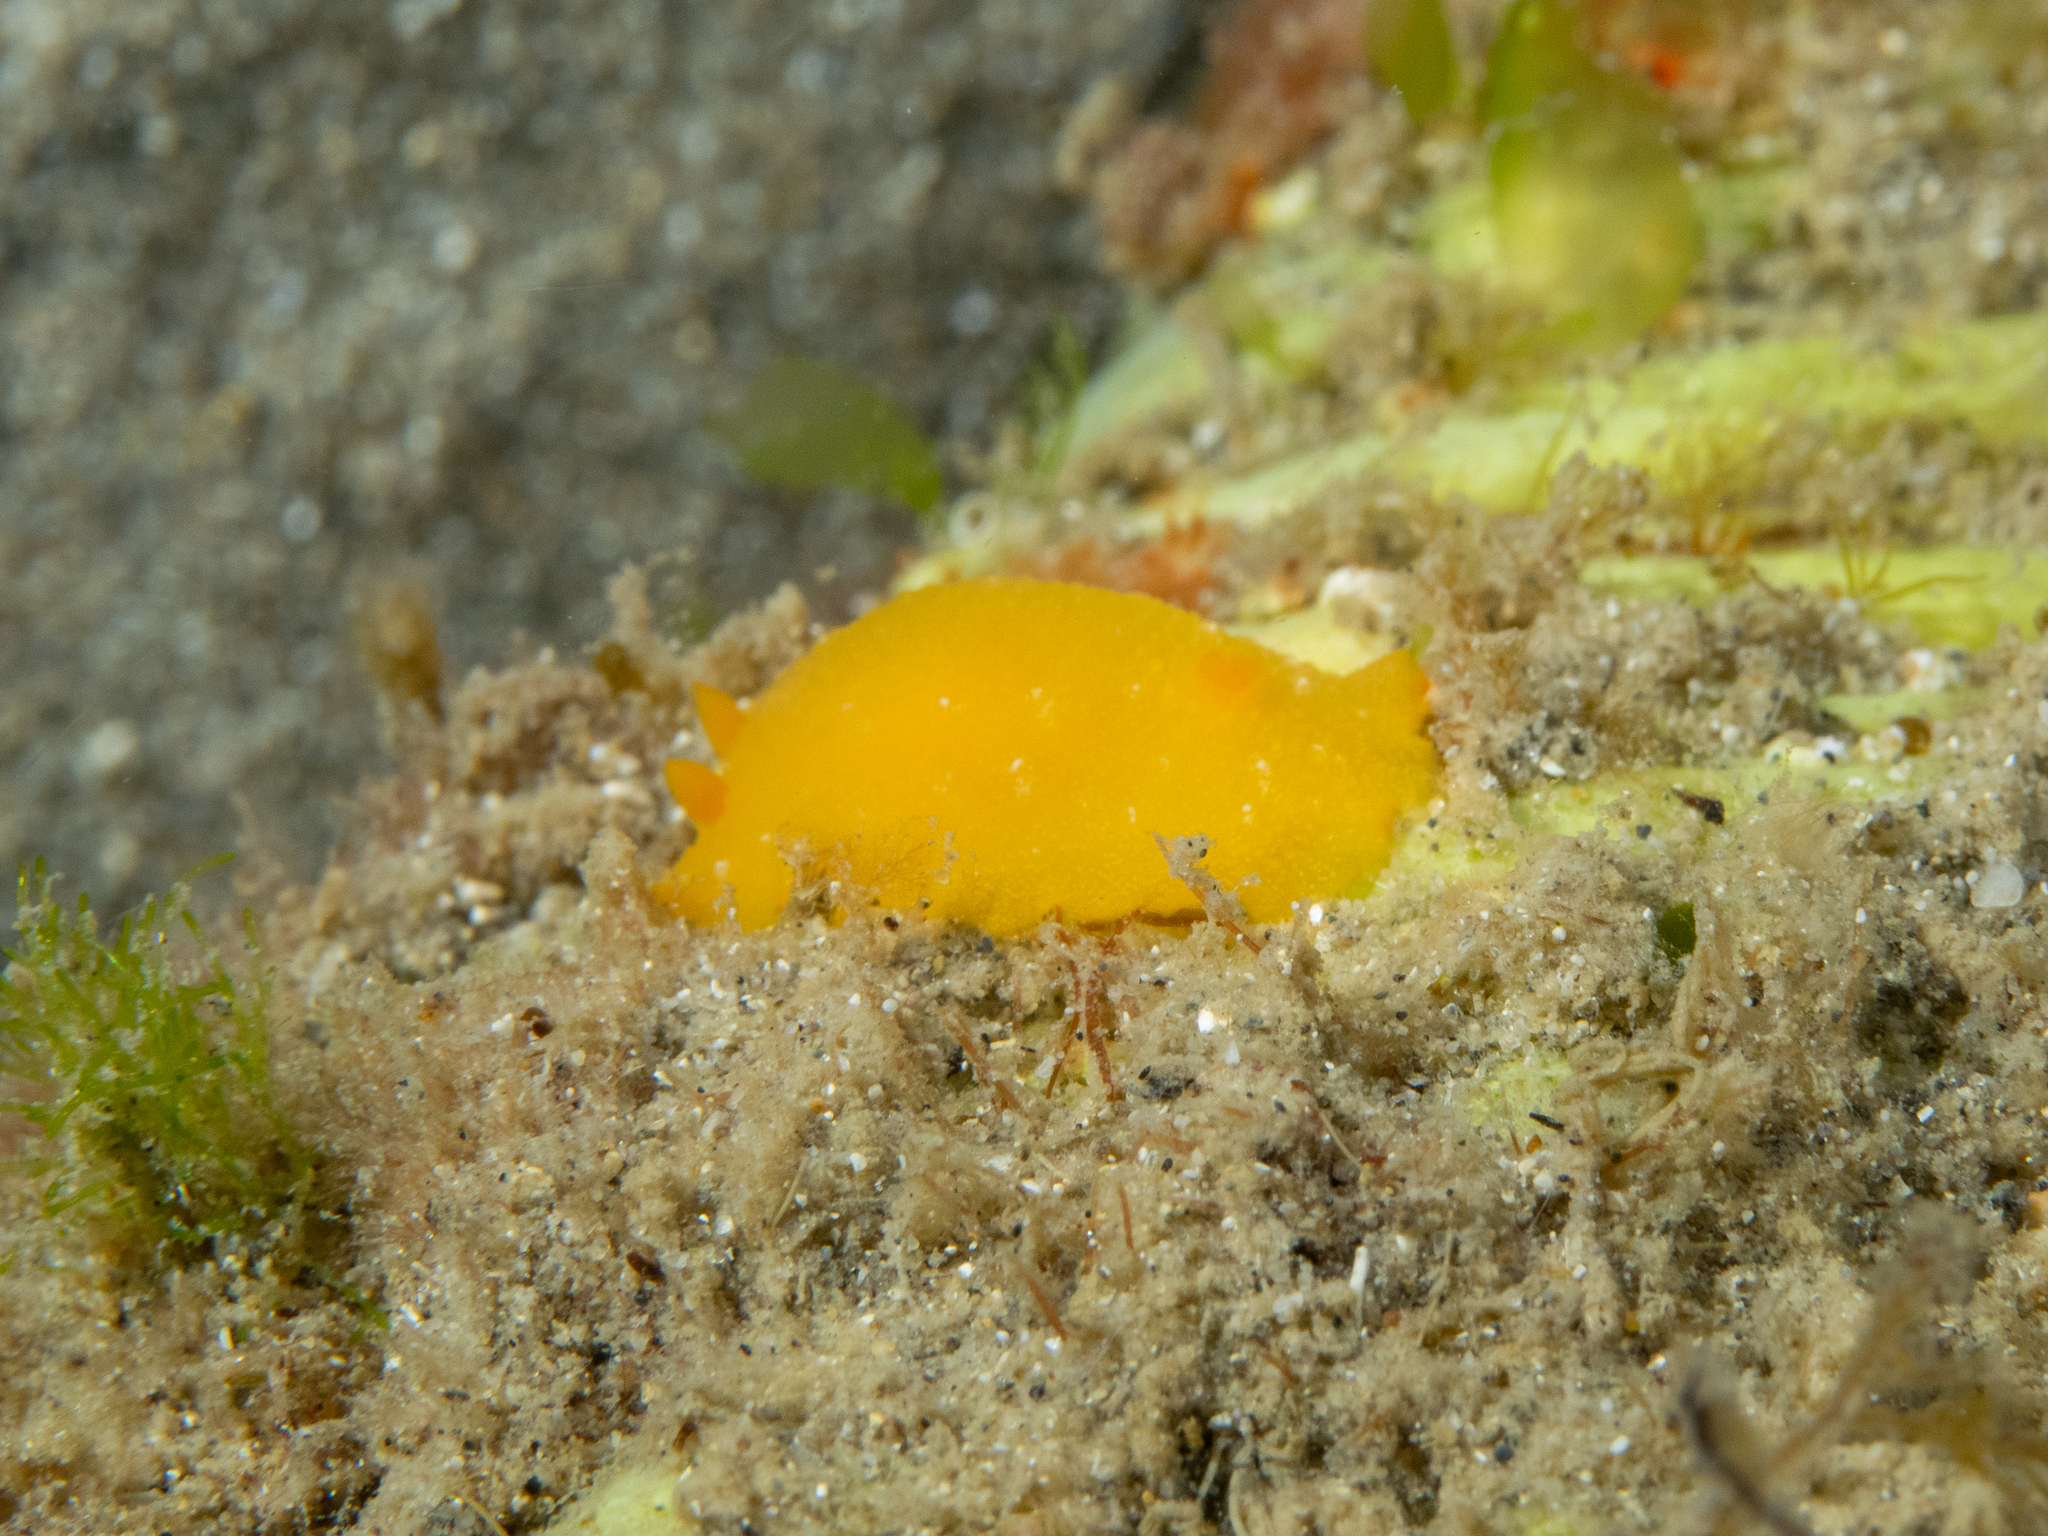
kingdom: Animalia
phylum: Mollusca
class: Gastropoda
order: Nudibranchia
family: Dendrodorididae
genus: Doriopsilla
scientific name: Doriopsilla carneola
